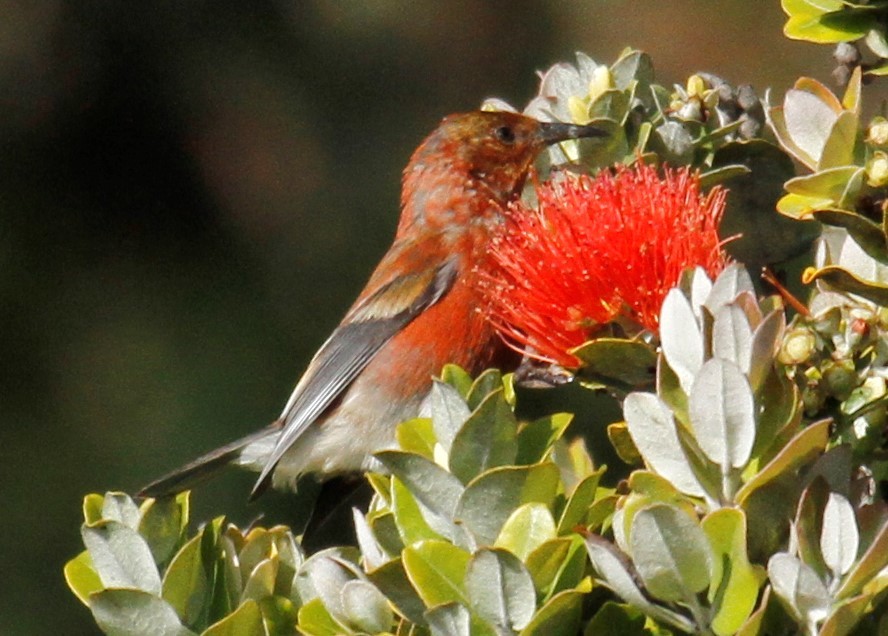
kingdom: Animalia
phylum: Chordata
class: Aves
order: Passeriformes
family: Fringillidae
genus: Himatione
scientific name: Himatione sanguinea
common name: Apapane
